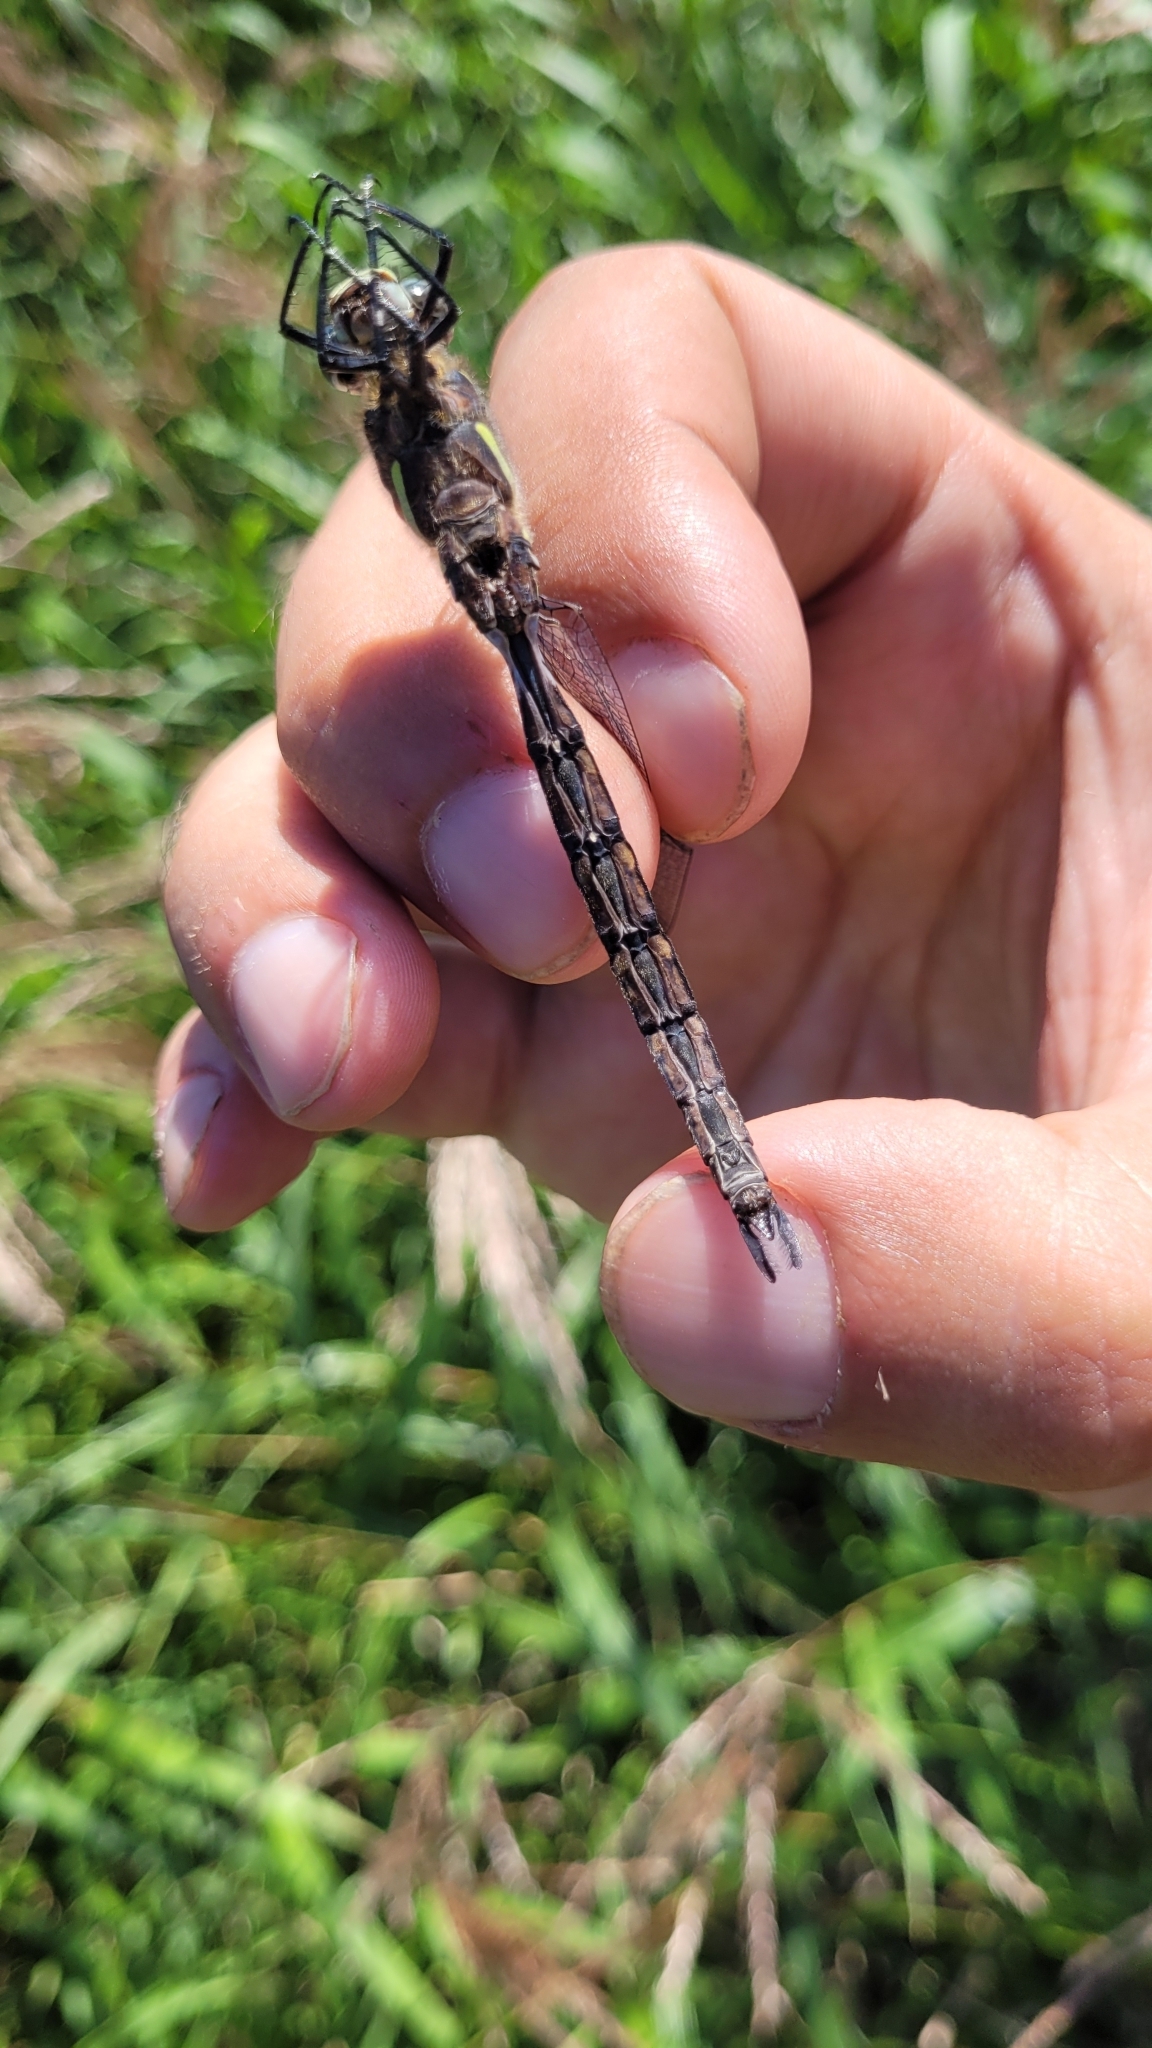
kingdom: Animalia
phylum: Arthropoda
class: Insecta
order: Odonata
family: Aeshnidae
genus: Aeshna
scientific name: Aeshna juncea
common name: Moorland hawker
